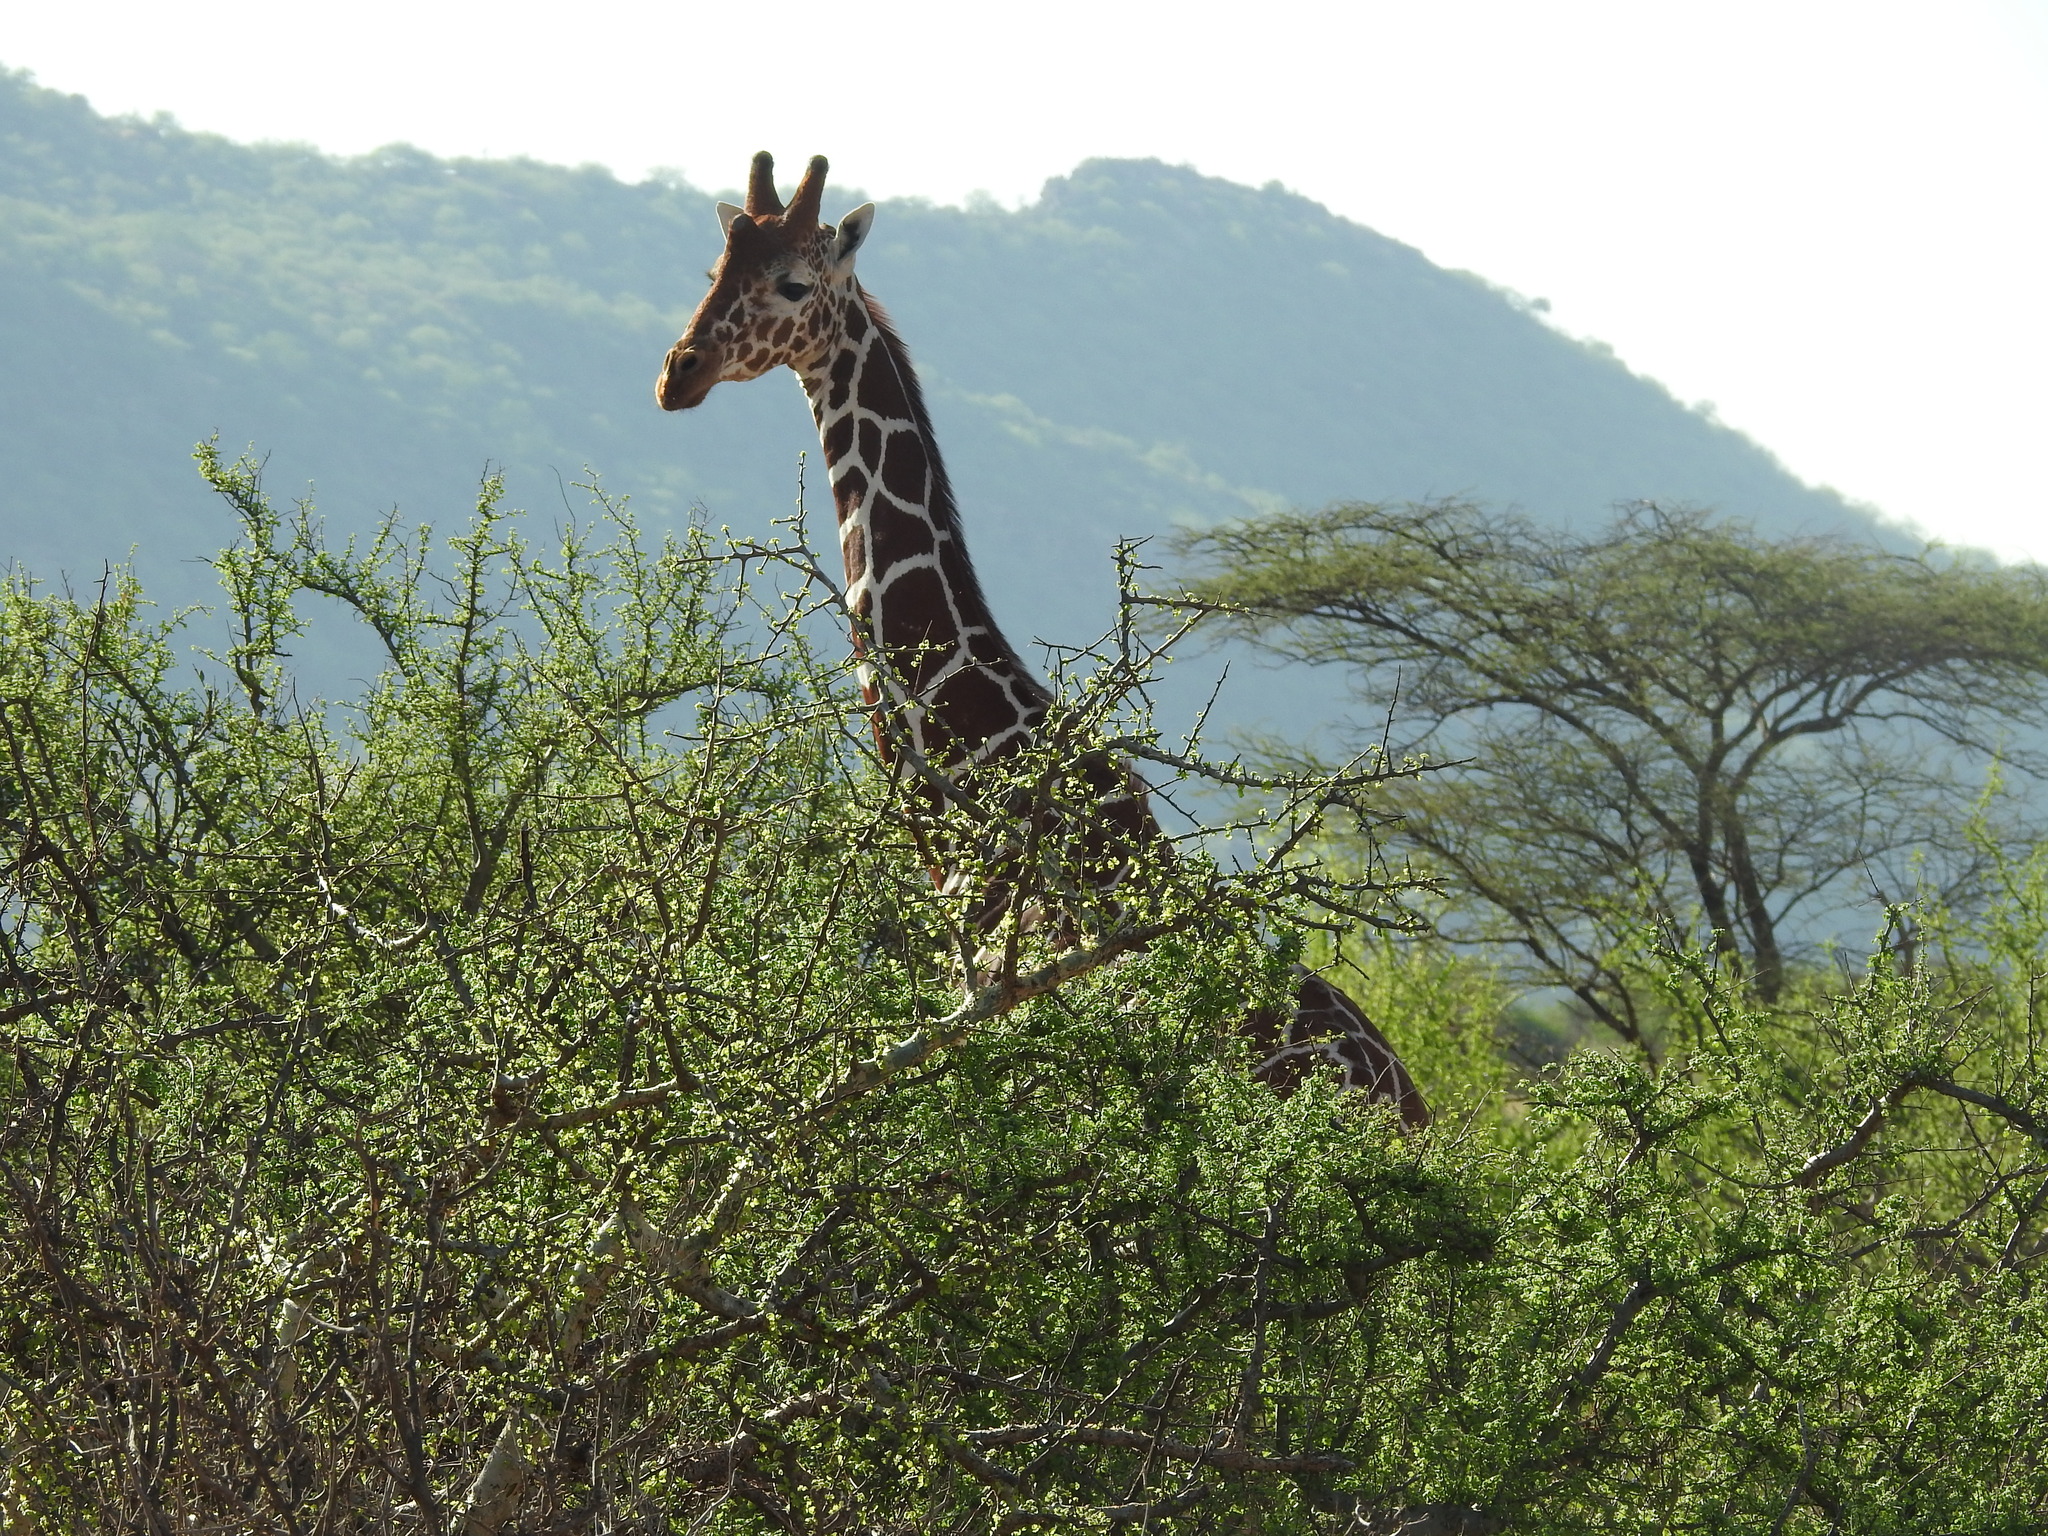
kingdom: Animalia
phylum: Chordata
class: Mammalia
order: Artiodactyla
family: Giraffidae
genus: Giraffa
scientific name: Giraffa reticulata
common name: Reticulated giraffe
